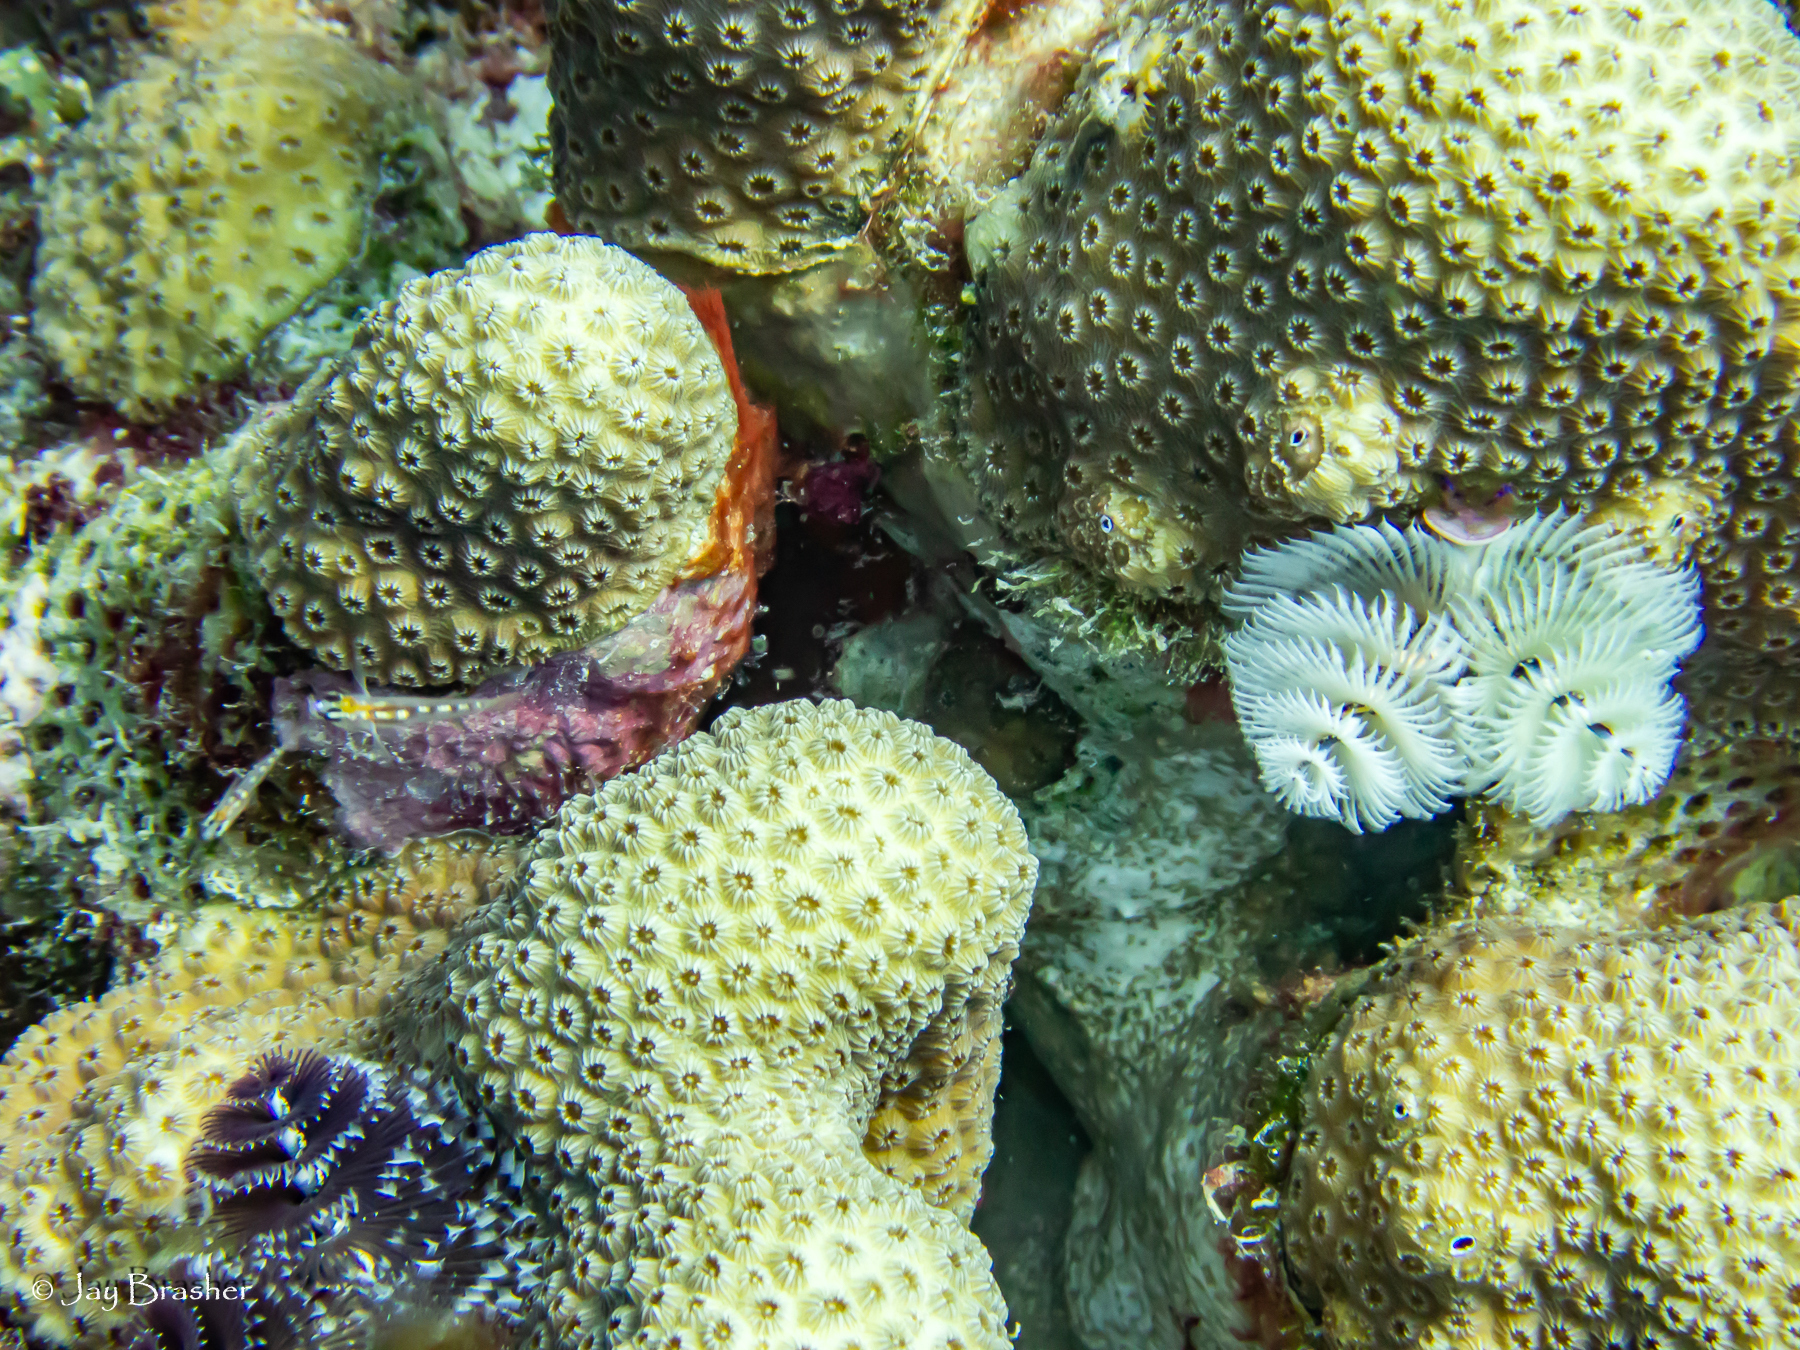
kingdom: Animalia
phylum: Cnidaria
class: Anthozoa
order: Scleractinia
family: Merulinidae
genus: Orbicella
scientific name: Orbicella annularis
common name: Boulder star coral
